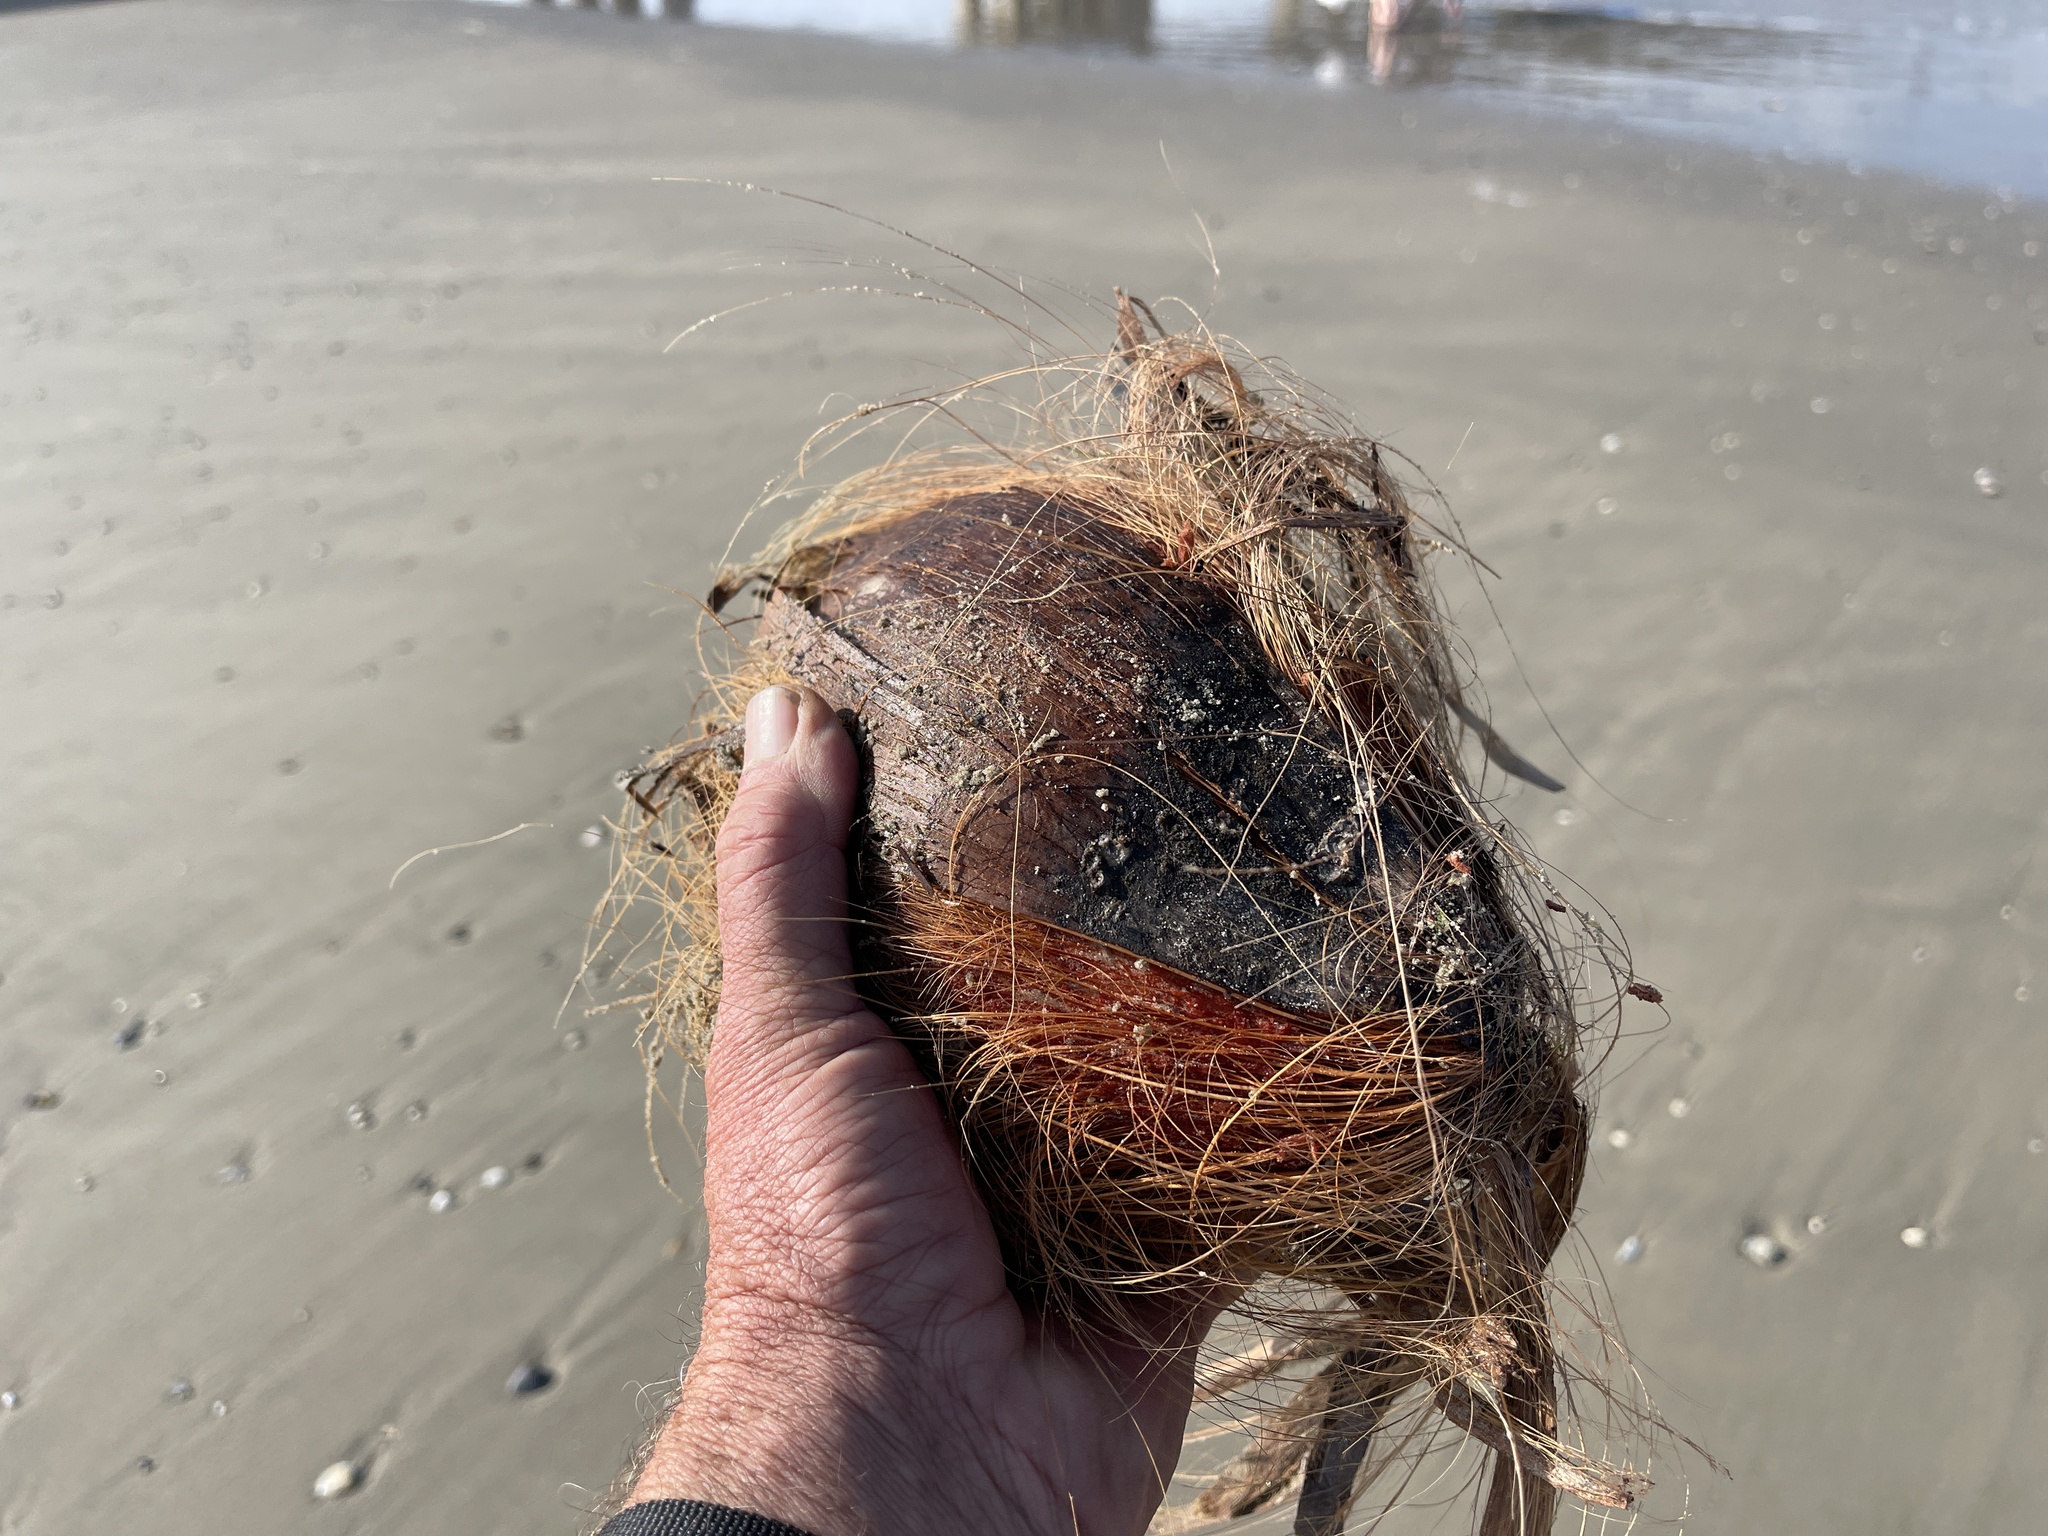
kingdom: Plantae
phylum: Tracheophyta
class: Liliopsida
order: Arecales
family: Arecaceae
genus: Cocos
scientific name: Cocos nucifera
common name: Coconut palm
